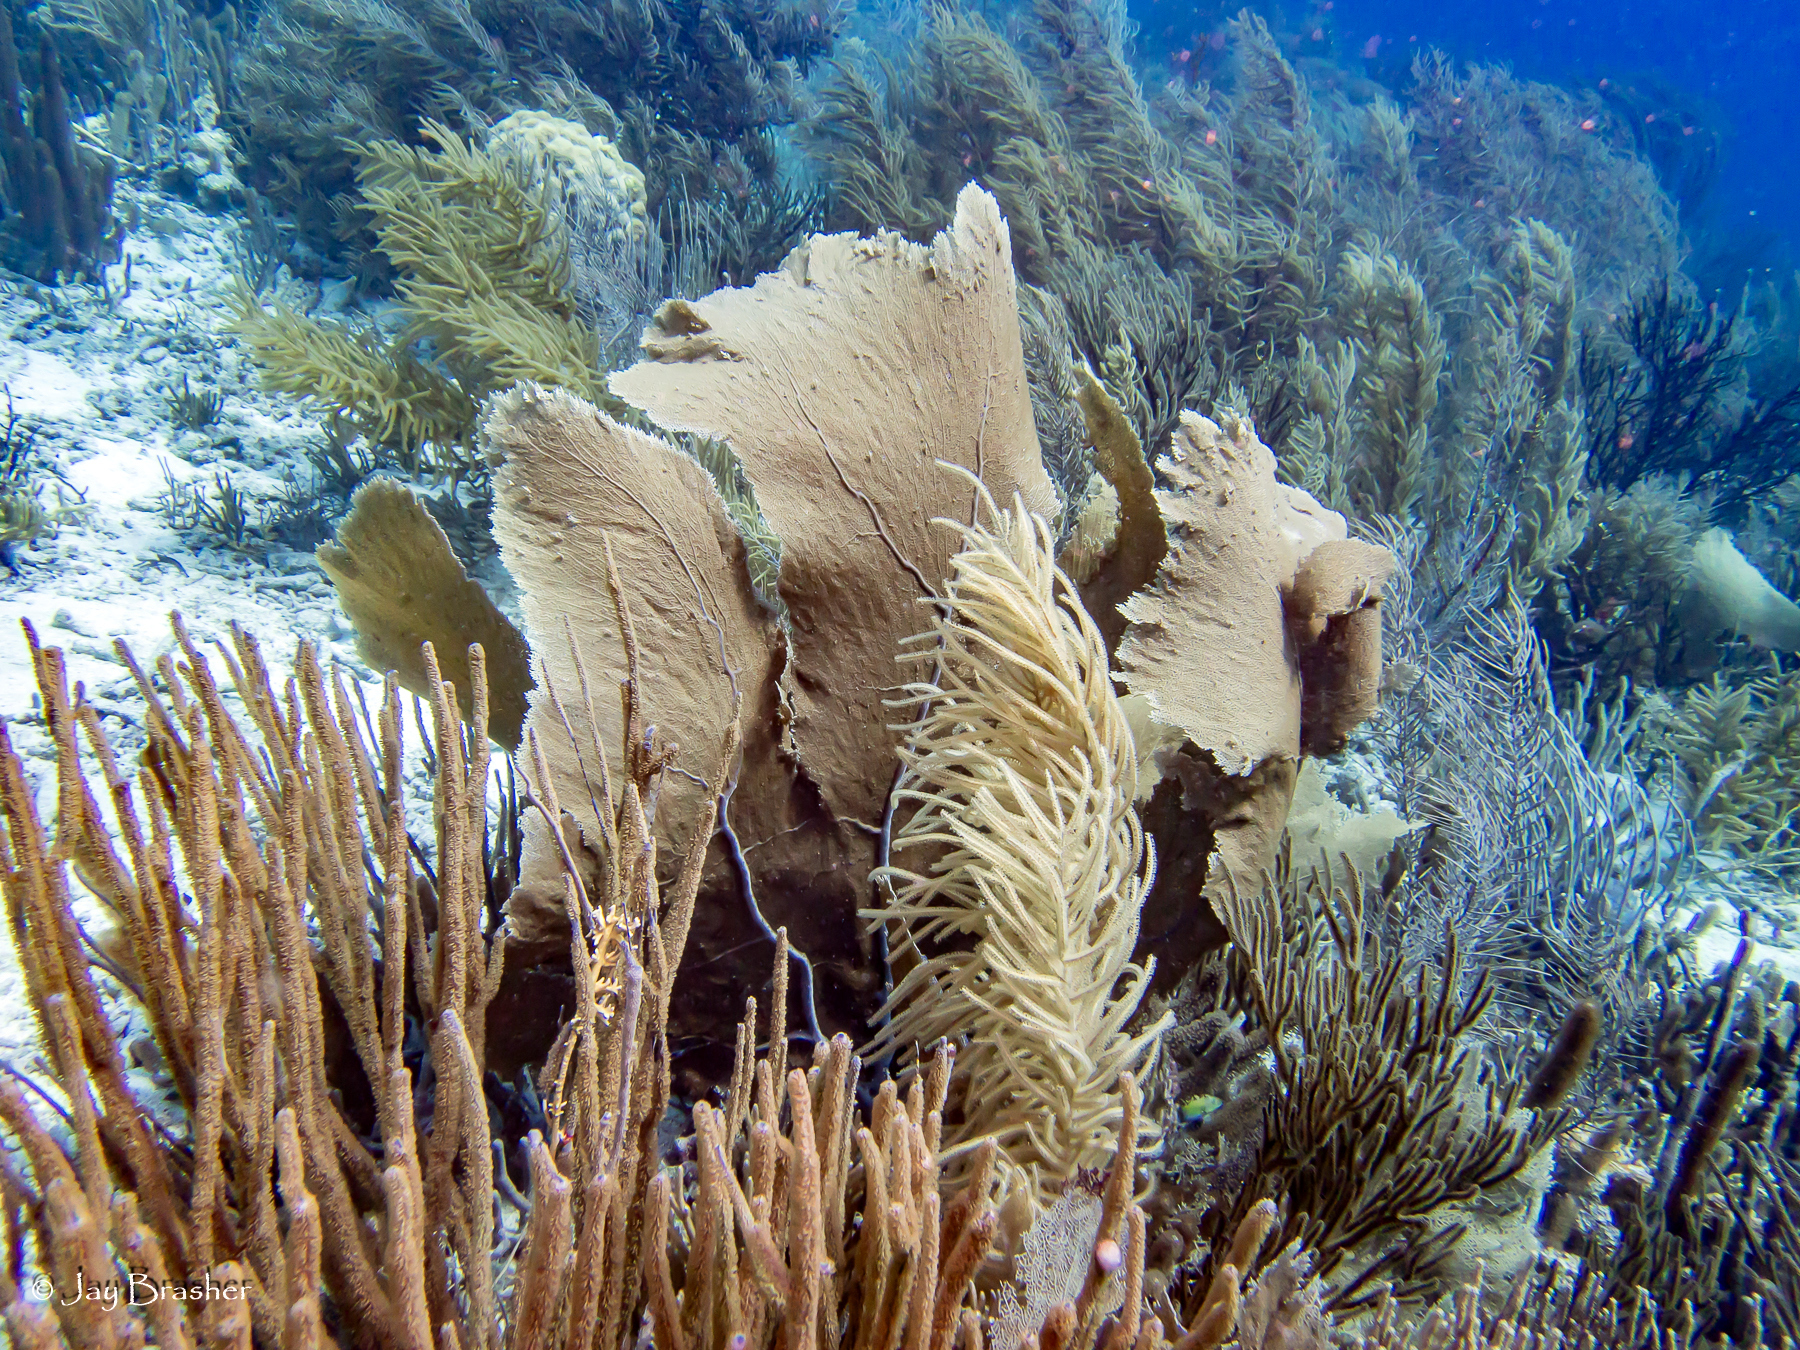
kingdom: Animalia
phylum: Cnidaria
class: Anthozoa
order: Malacalcyonacea
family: Gorgoniidae
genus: Gorgonia
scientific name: Gorgonia ventalina
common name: Common sea fan
